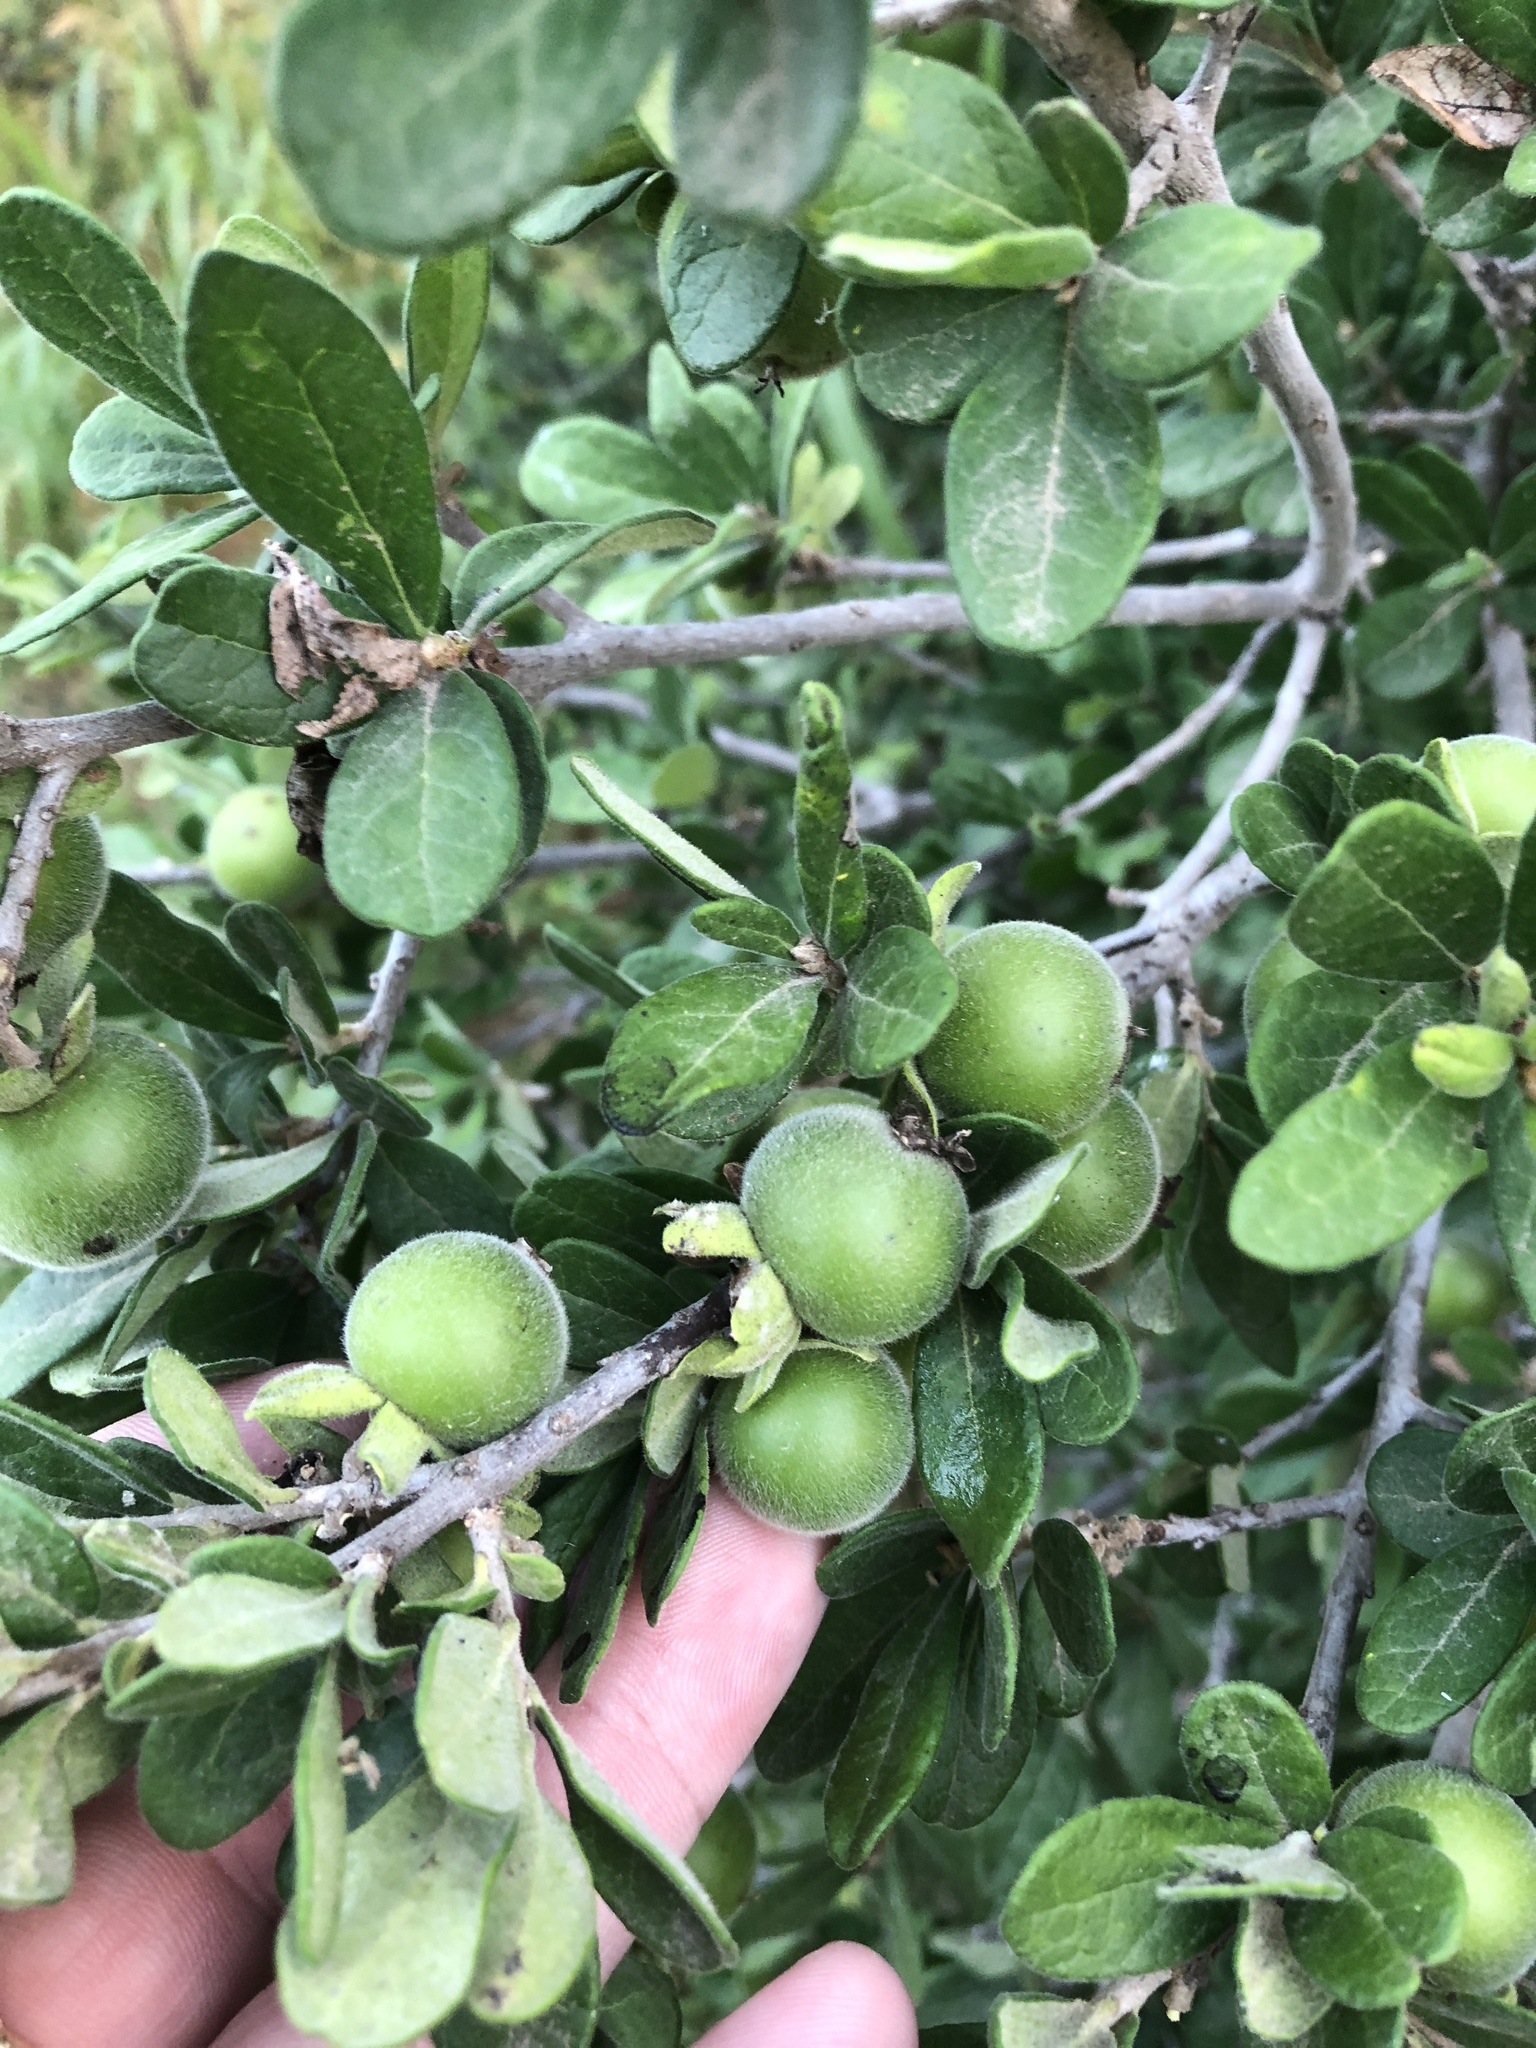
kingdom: Plantae
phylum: Tracheophyta
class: Magnoliopsida
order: Ericales
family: Ebenaceae
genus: Diospyros
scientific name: Diospyros texana
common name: Texas persimmon
